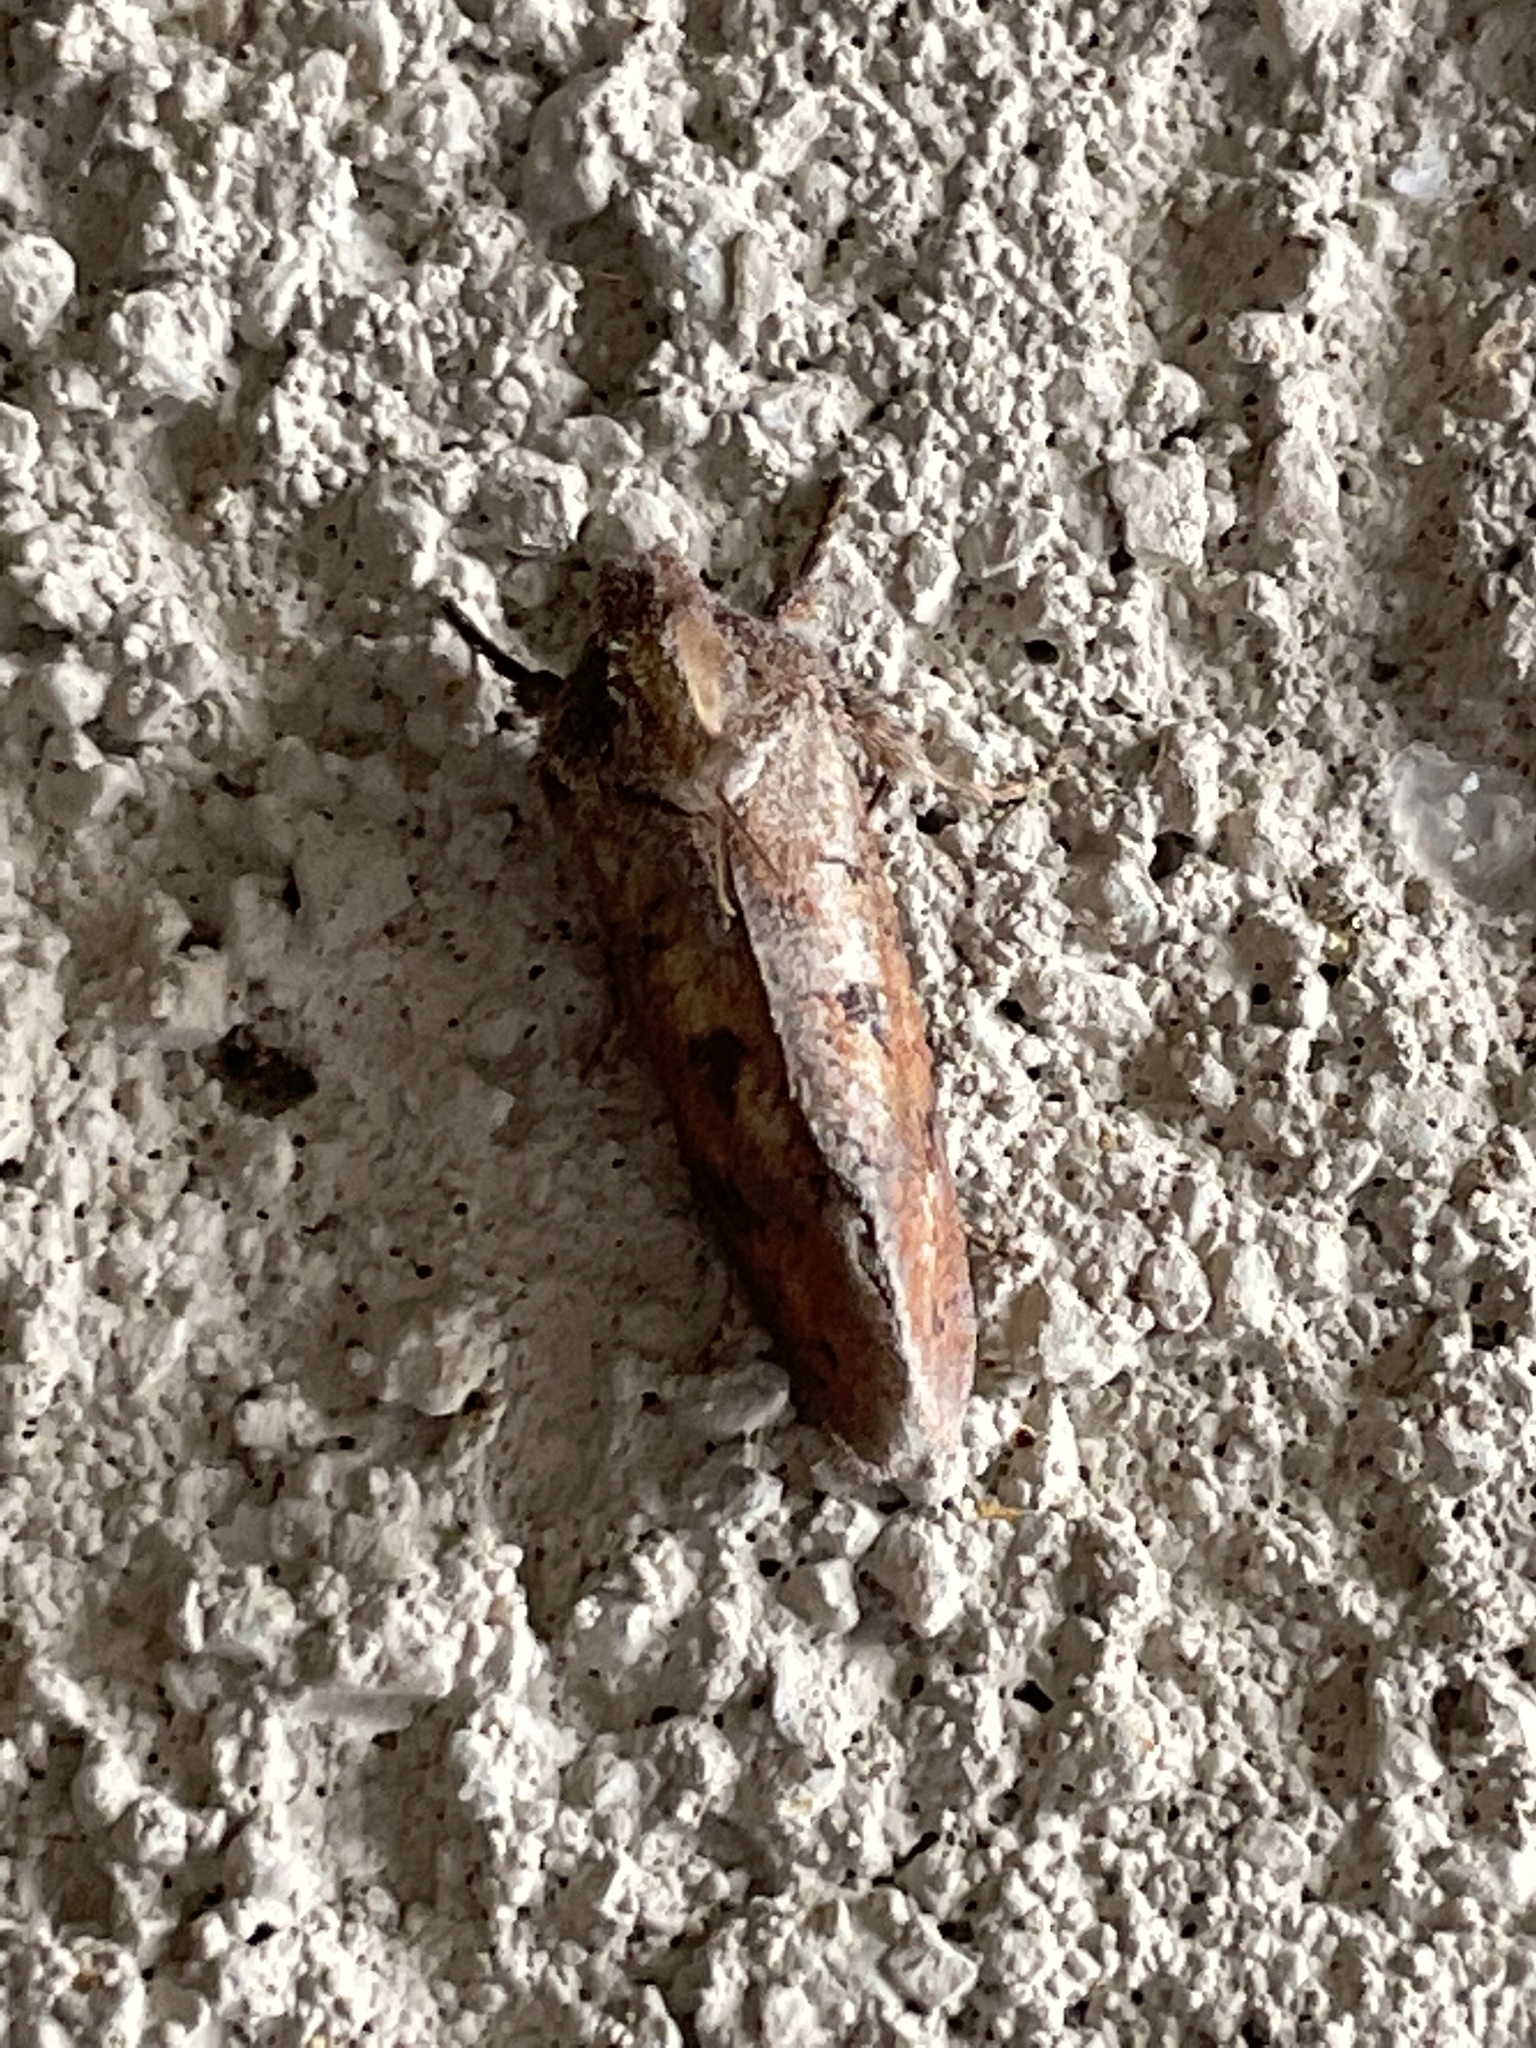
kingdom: Animalia
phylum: Arthropoda
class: Insecta
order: Lepidoptera
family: Tineidae
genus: Acrolophus
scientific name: Acrolophus plumifrontella
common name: Eastern grass tubeworm moth
